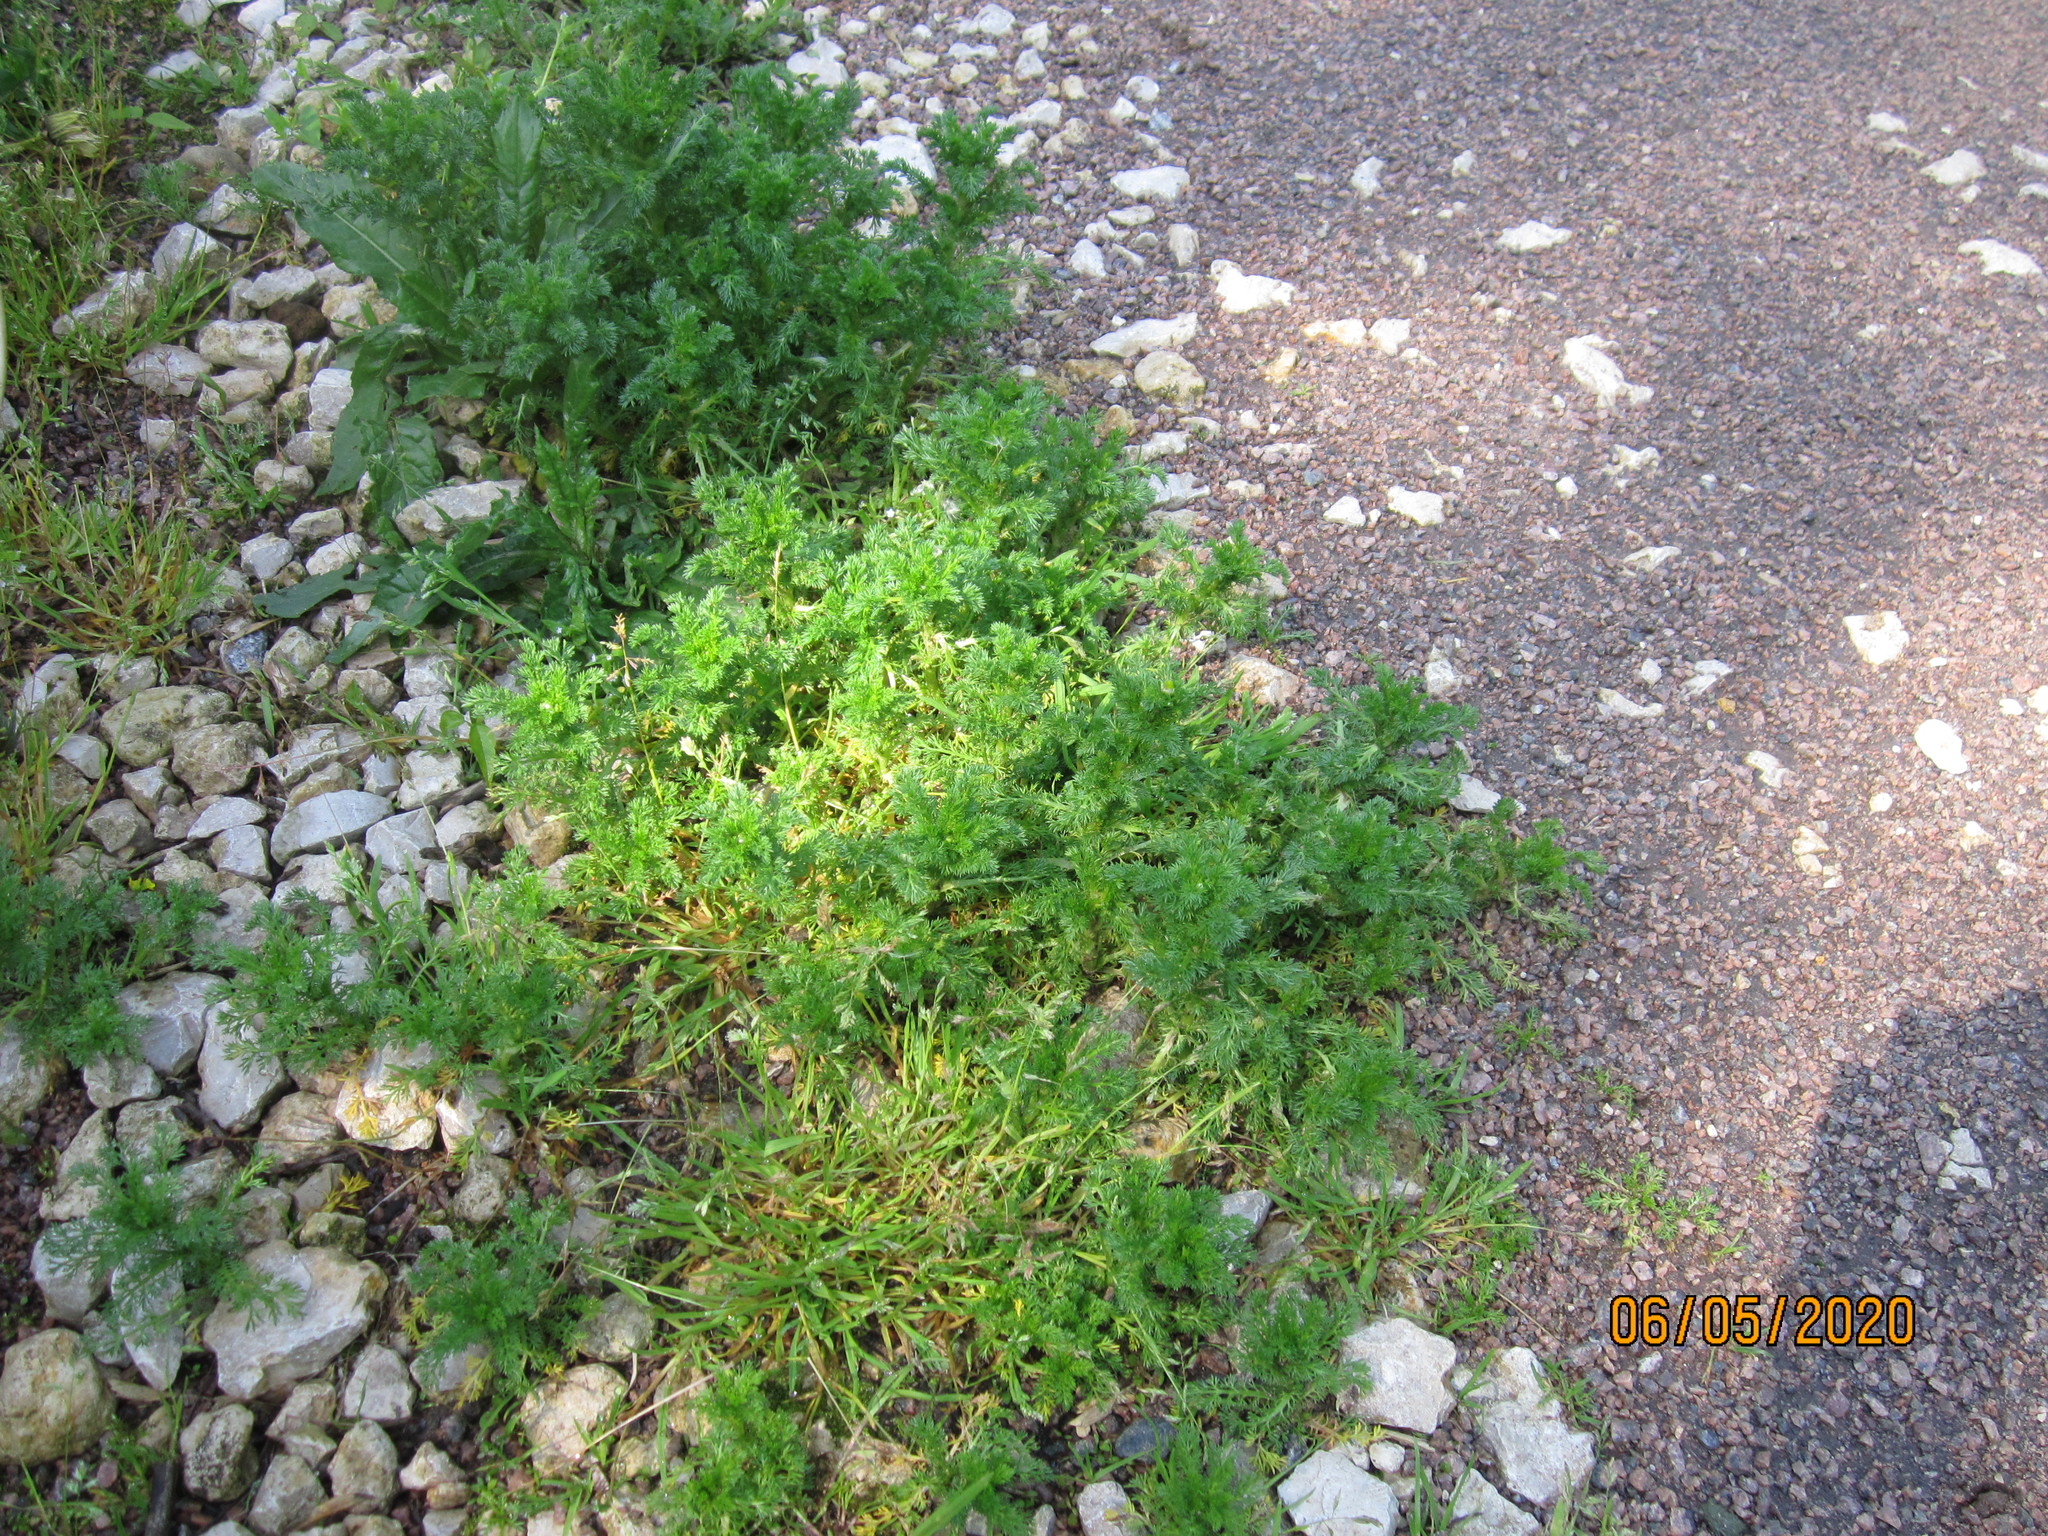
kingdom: Plantae
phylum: Tracheophyta
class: Magnoliopsida
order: Asterales
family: Asteraceae
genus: Matricaria
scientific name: Matricaria discoidea
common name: Disc mayweed
